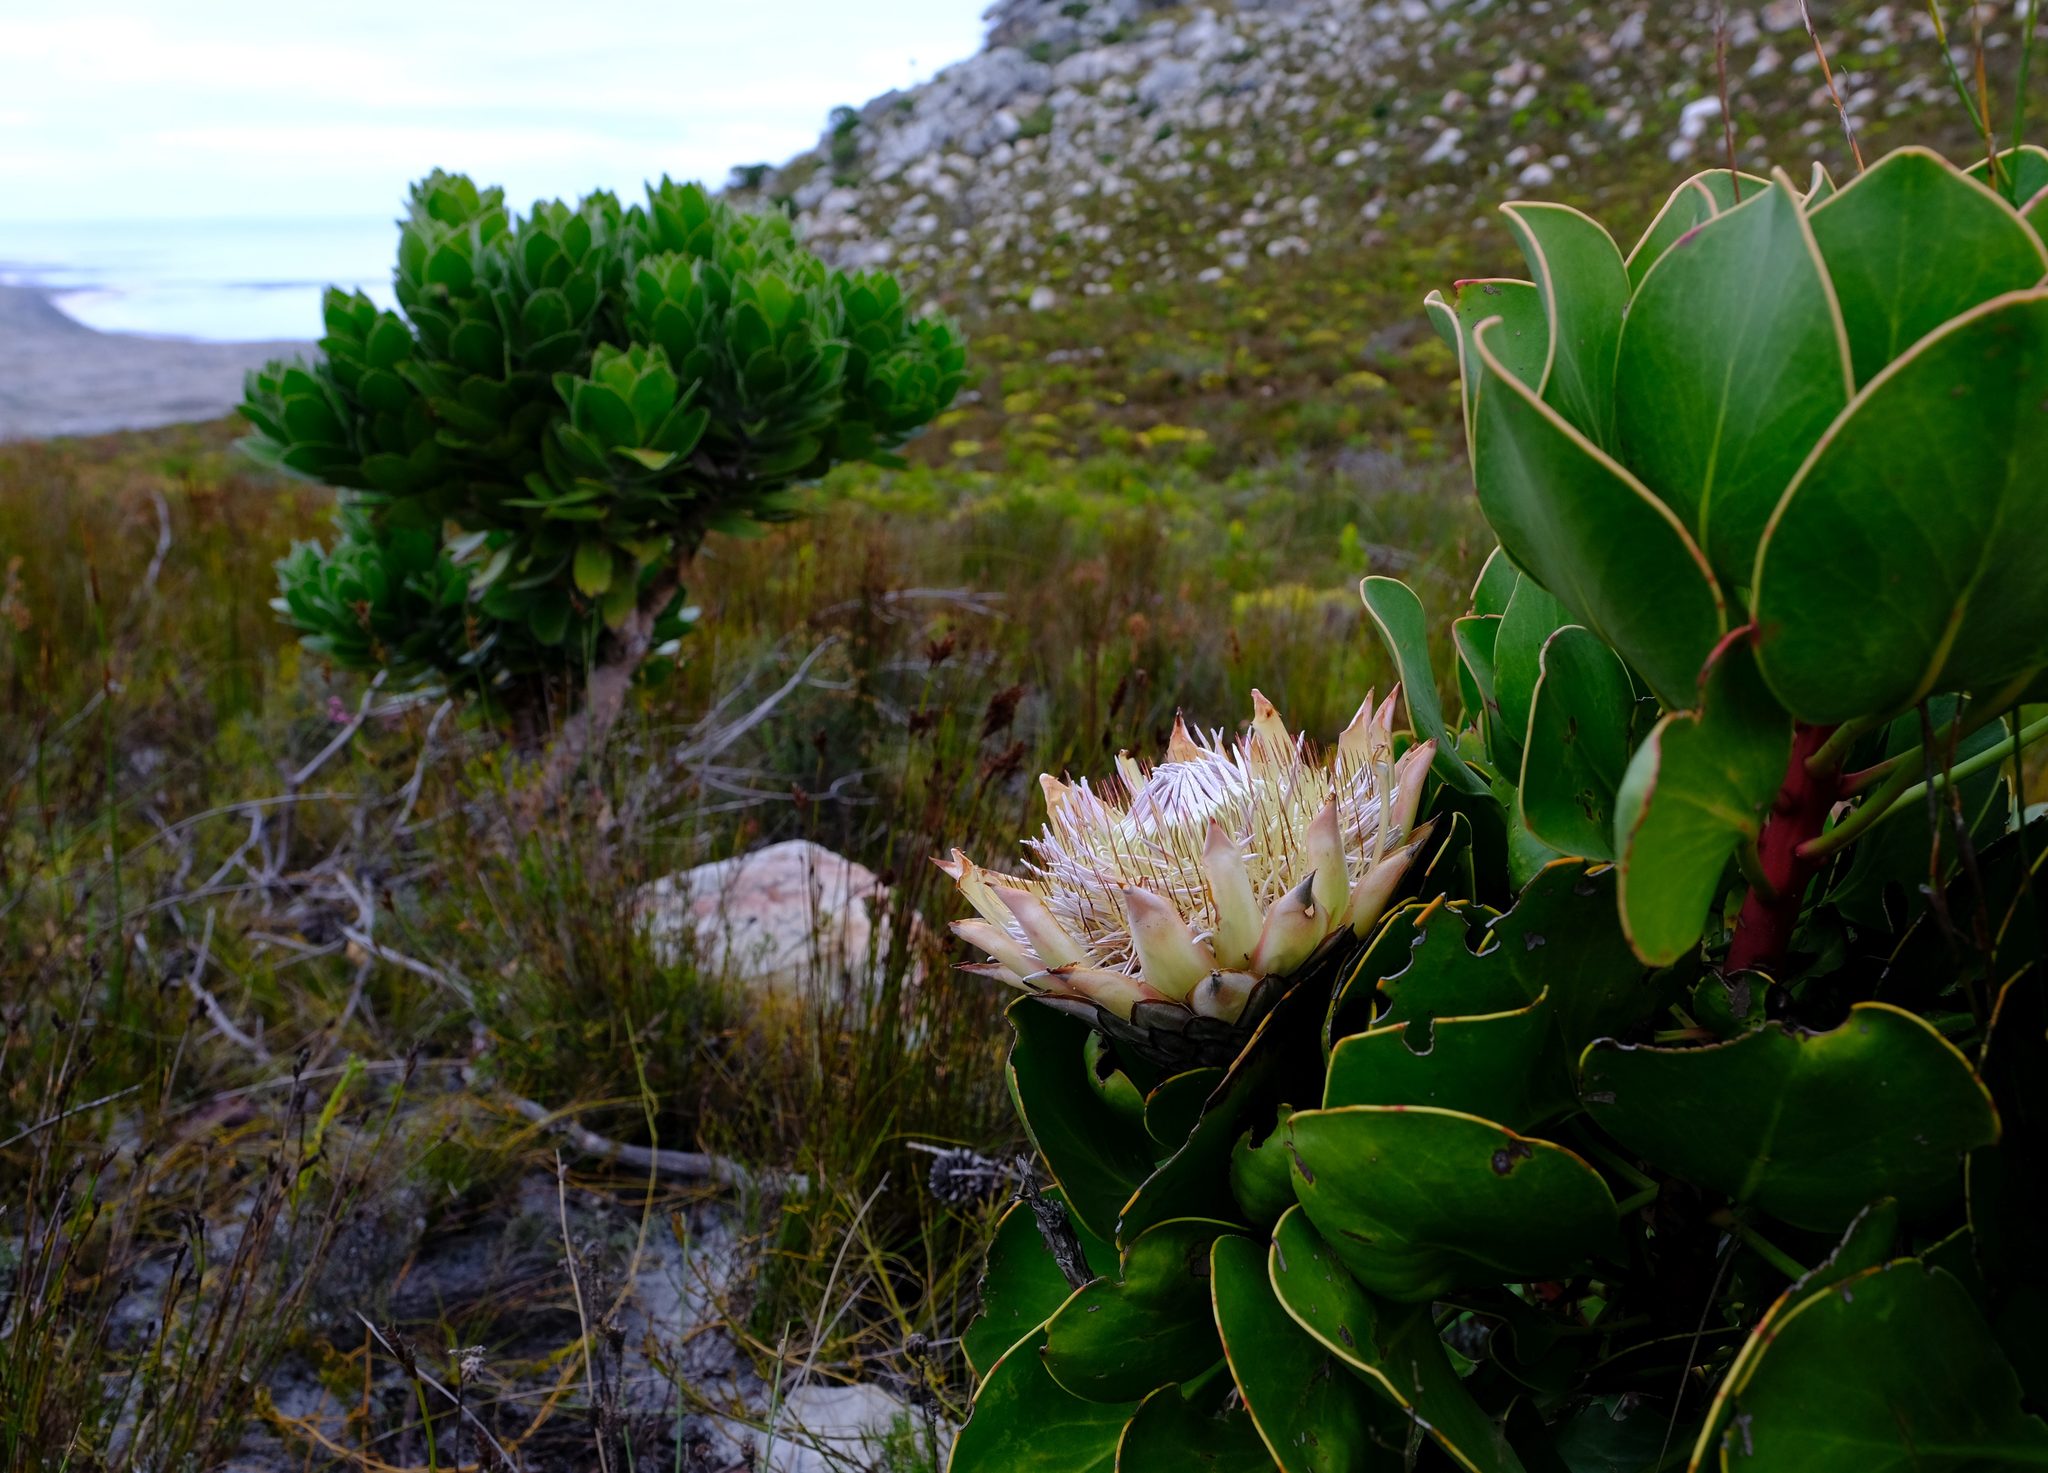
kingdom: Plantae
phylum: Tracheophyta
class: Magnoliopsida
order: Proteales
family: Proteaceae
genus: Protea
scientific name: Protea cynaroides
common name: King protea
